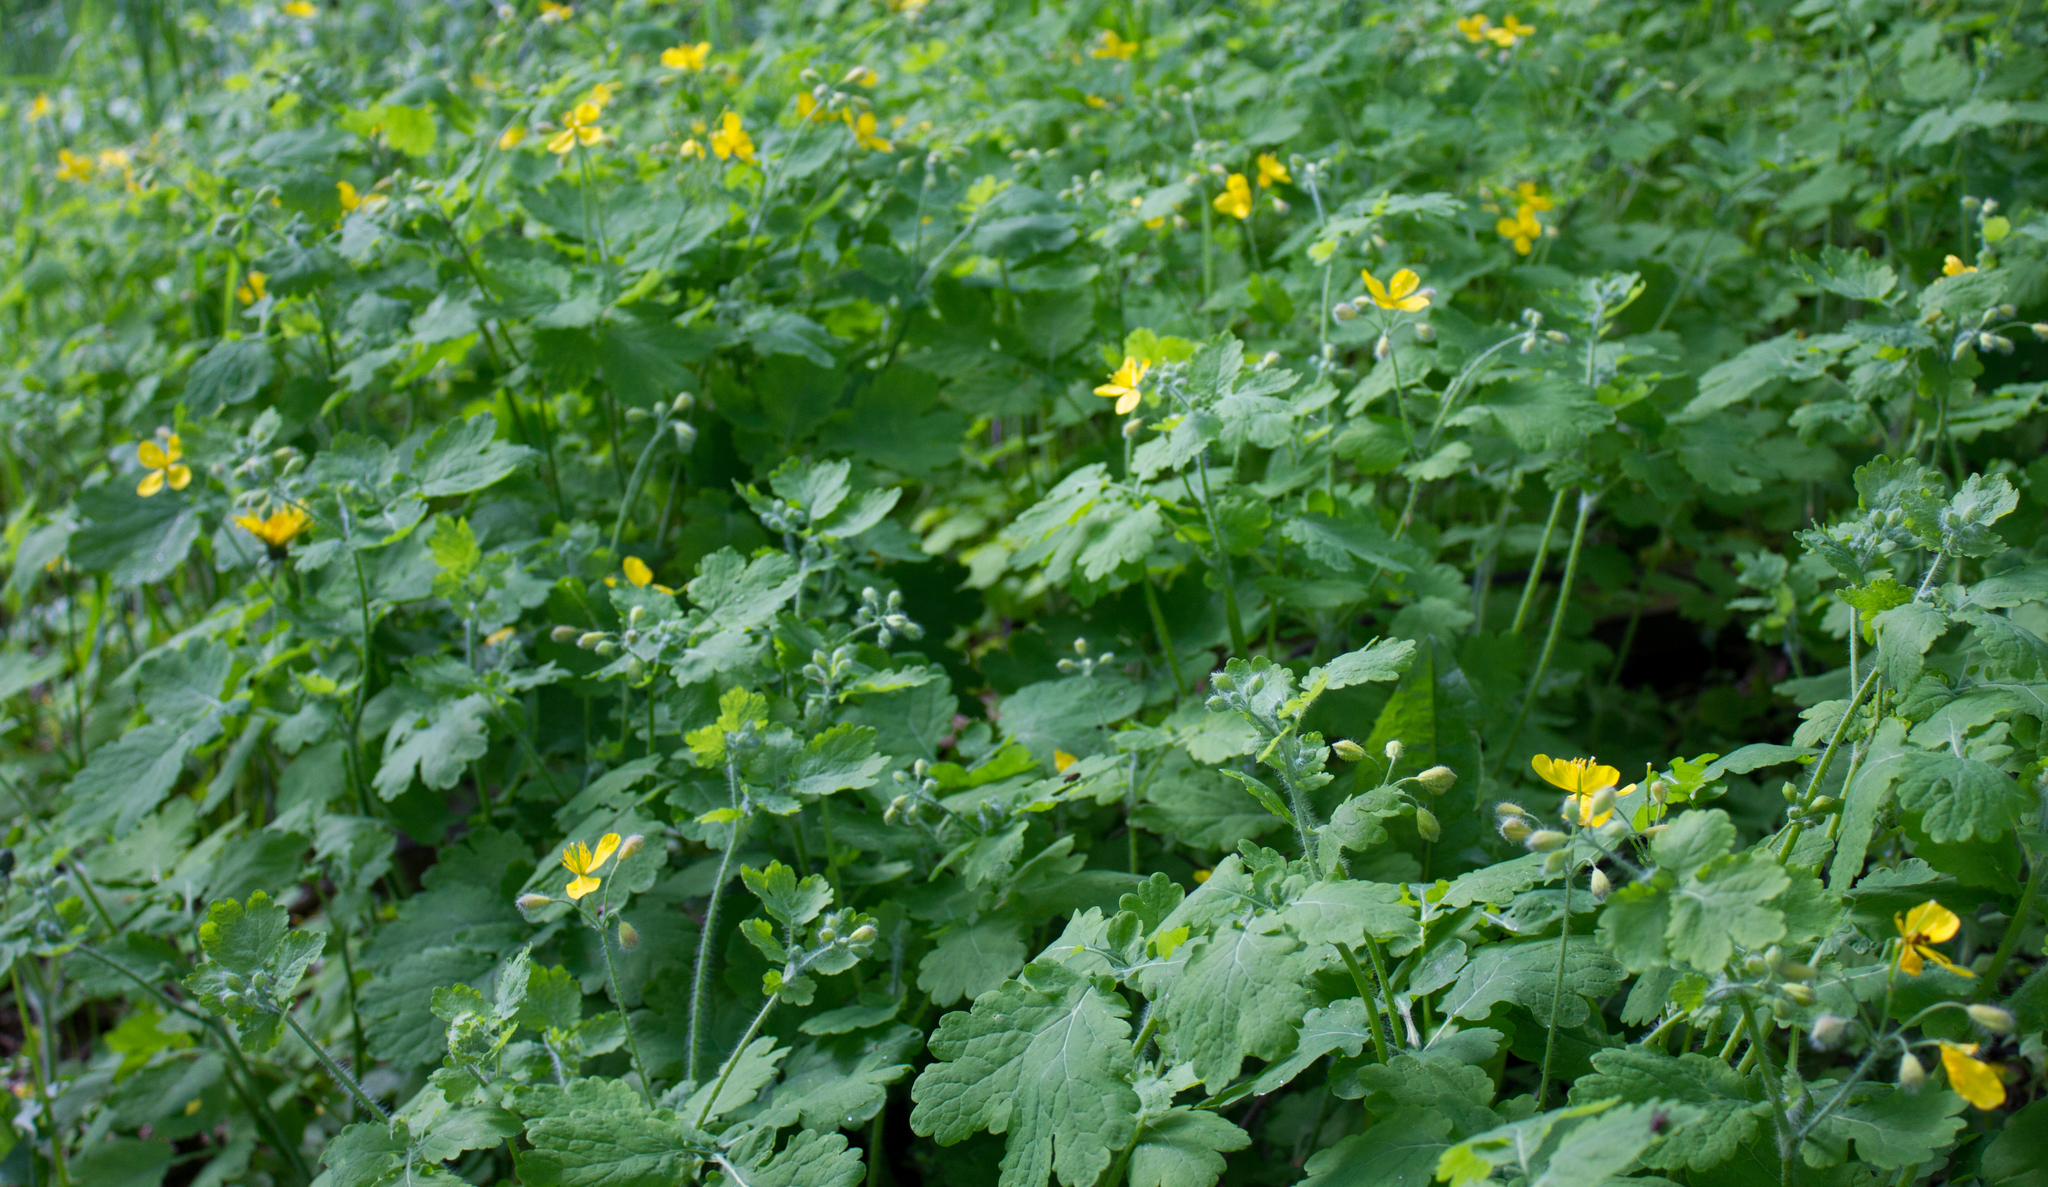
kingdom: Plantae
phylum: Tracheophyta
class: Magnoliopsida
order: Ranunculales
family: Papaveraceae
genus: Chelidonium
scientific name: Chelidonium majus
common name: Greater celandine
